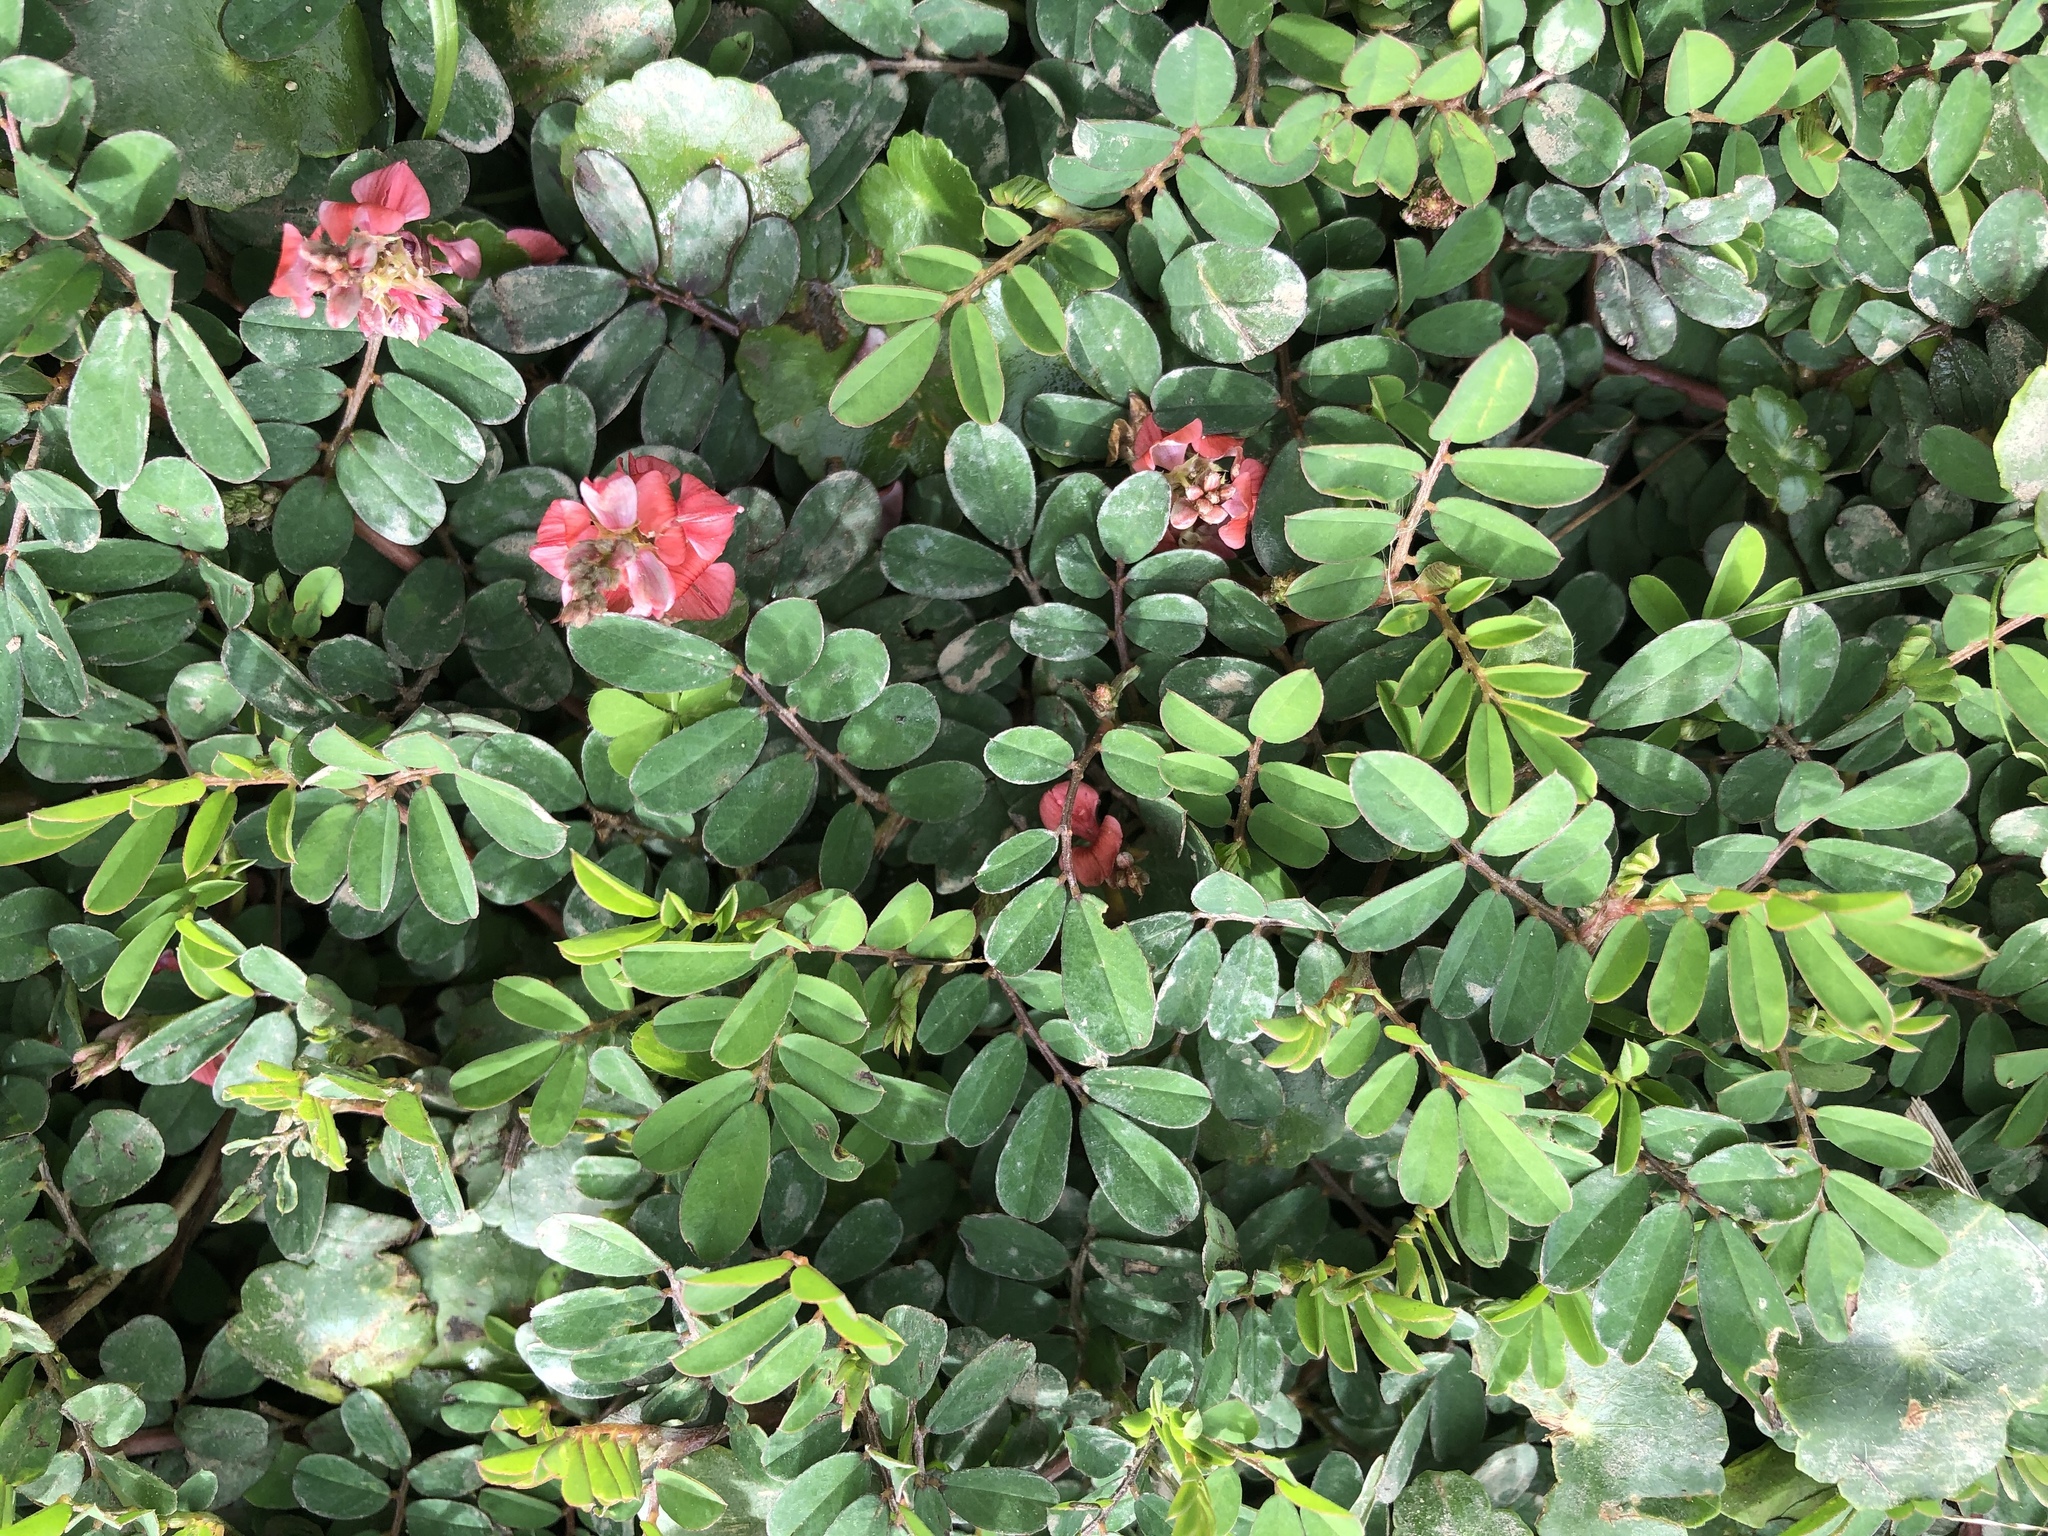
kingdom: Plantae
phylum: Tracheophyta
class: Magnoliopsida
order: Fabales
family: Fabaceae
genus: Indigofera
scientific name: Indigofera spicata
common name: Creeping indigo
